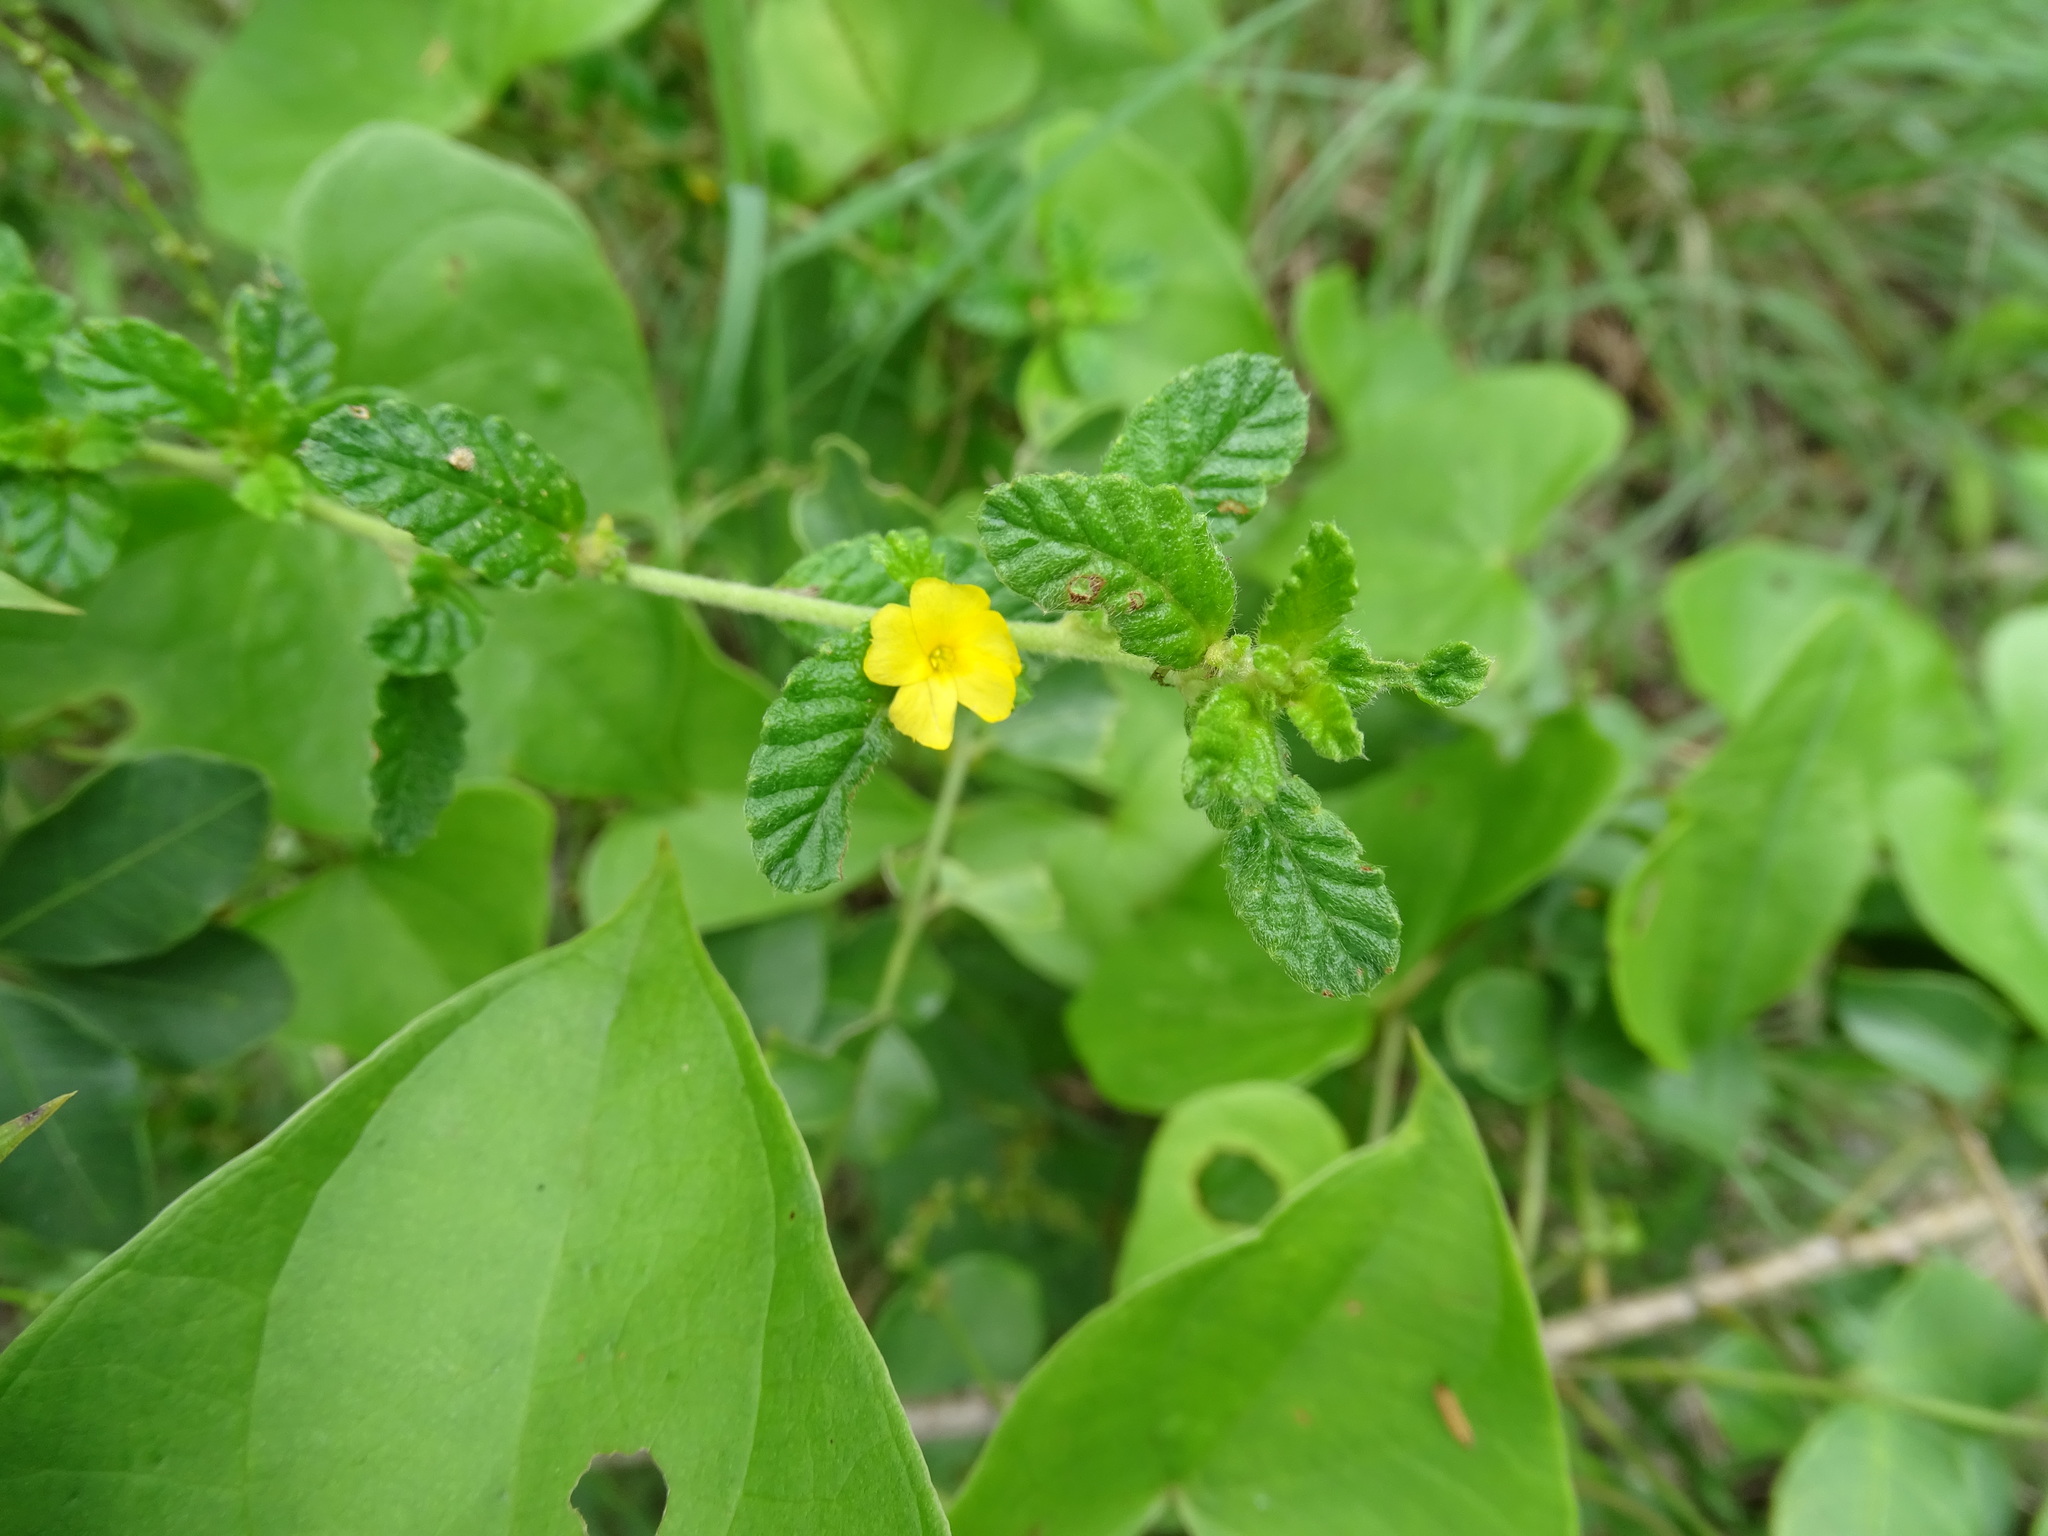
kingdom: Plantae
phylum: Tracheophyta
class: Magnoliopsida
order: Malpighiales
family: Turneraceae
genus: Turnera
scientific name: Turnera diffusa
